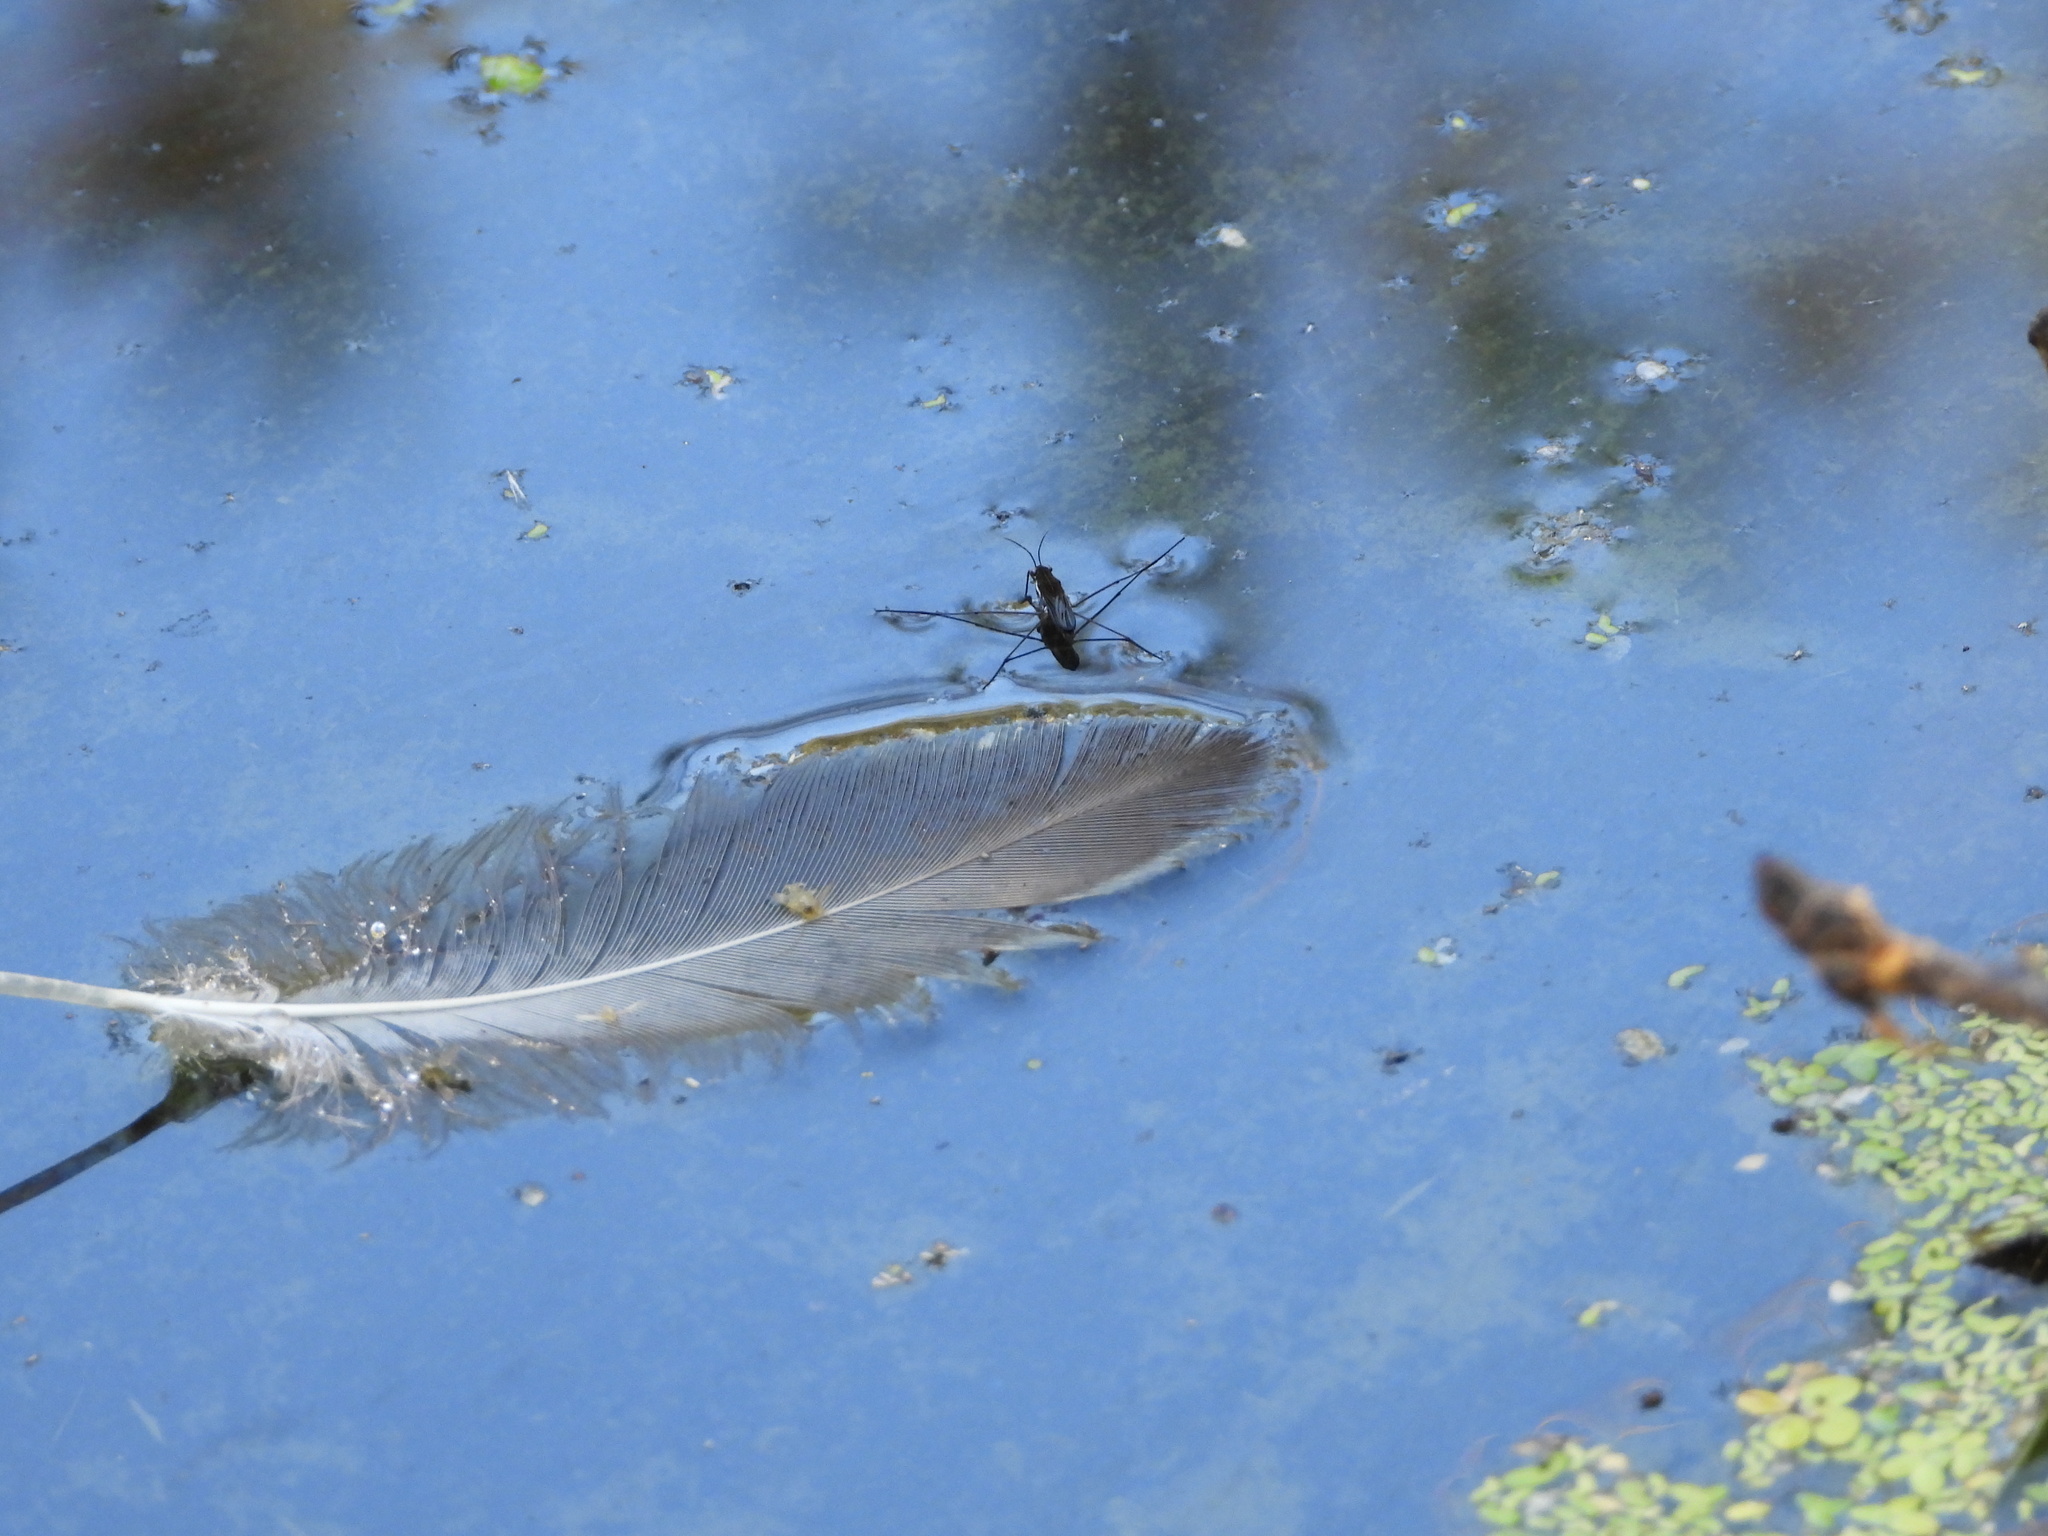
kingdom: Animalia
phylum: Arthropoda
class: Insecta
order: Hemiptera
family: Gerridae
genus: Gerris
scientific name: Gerris
